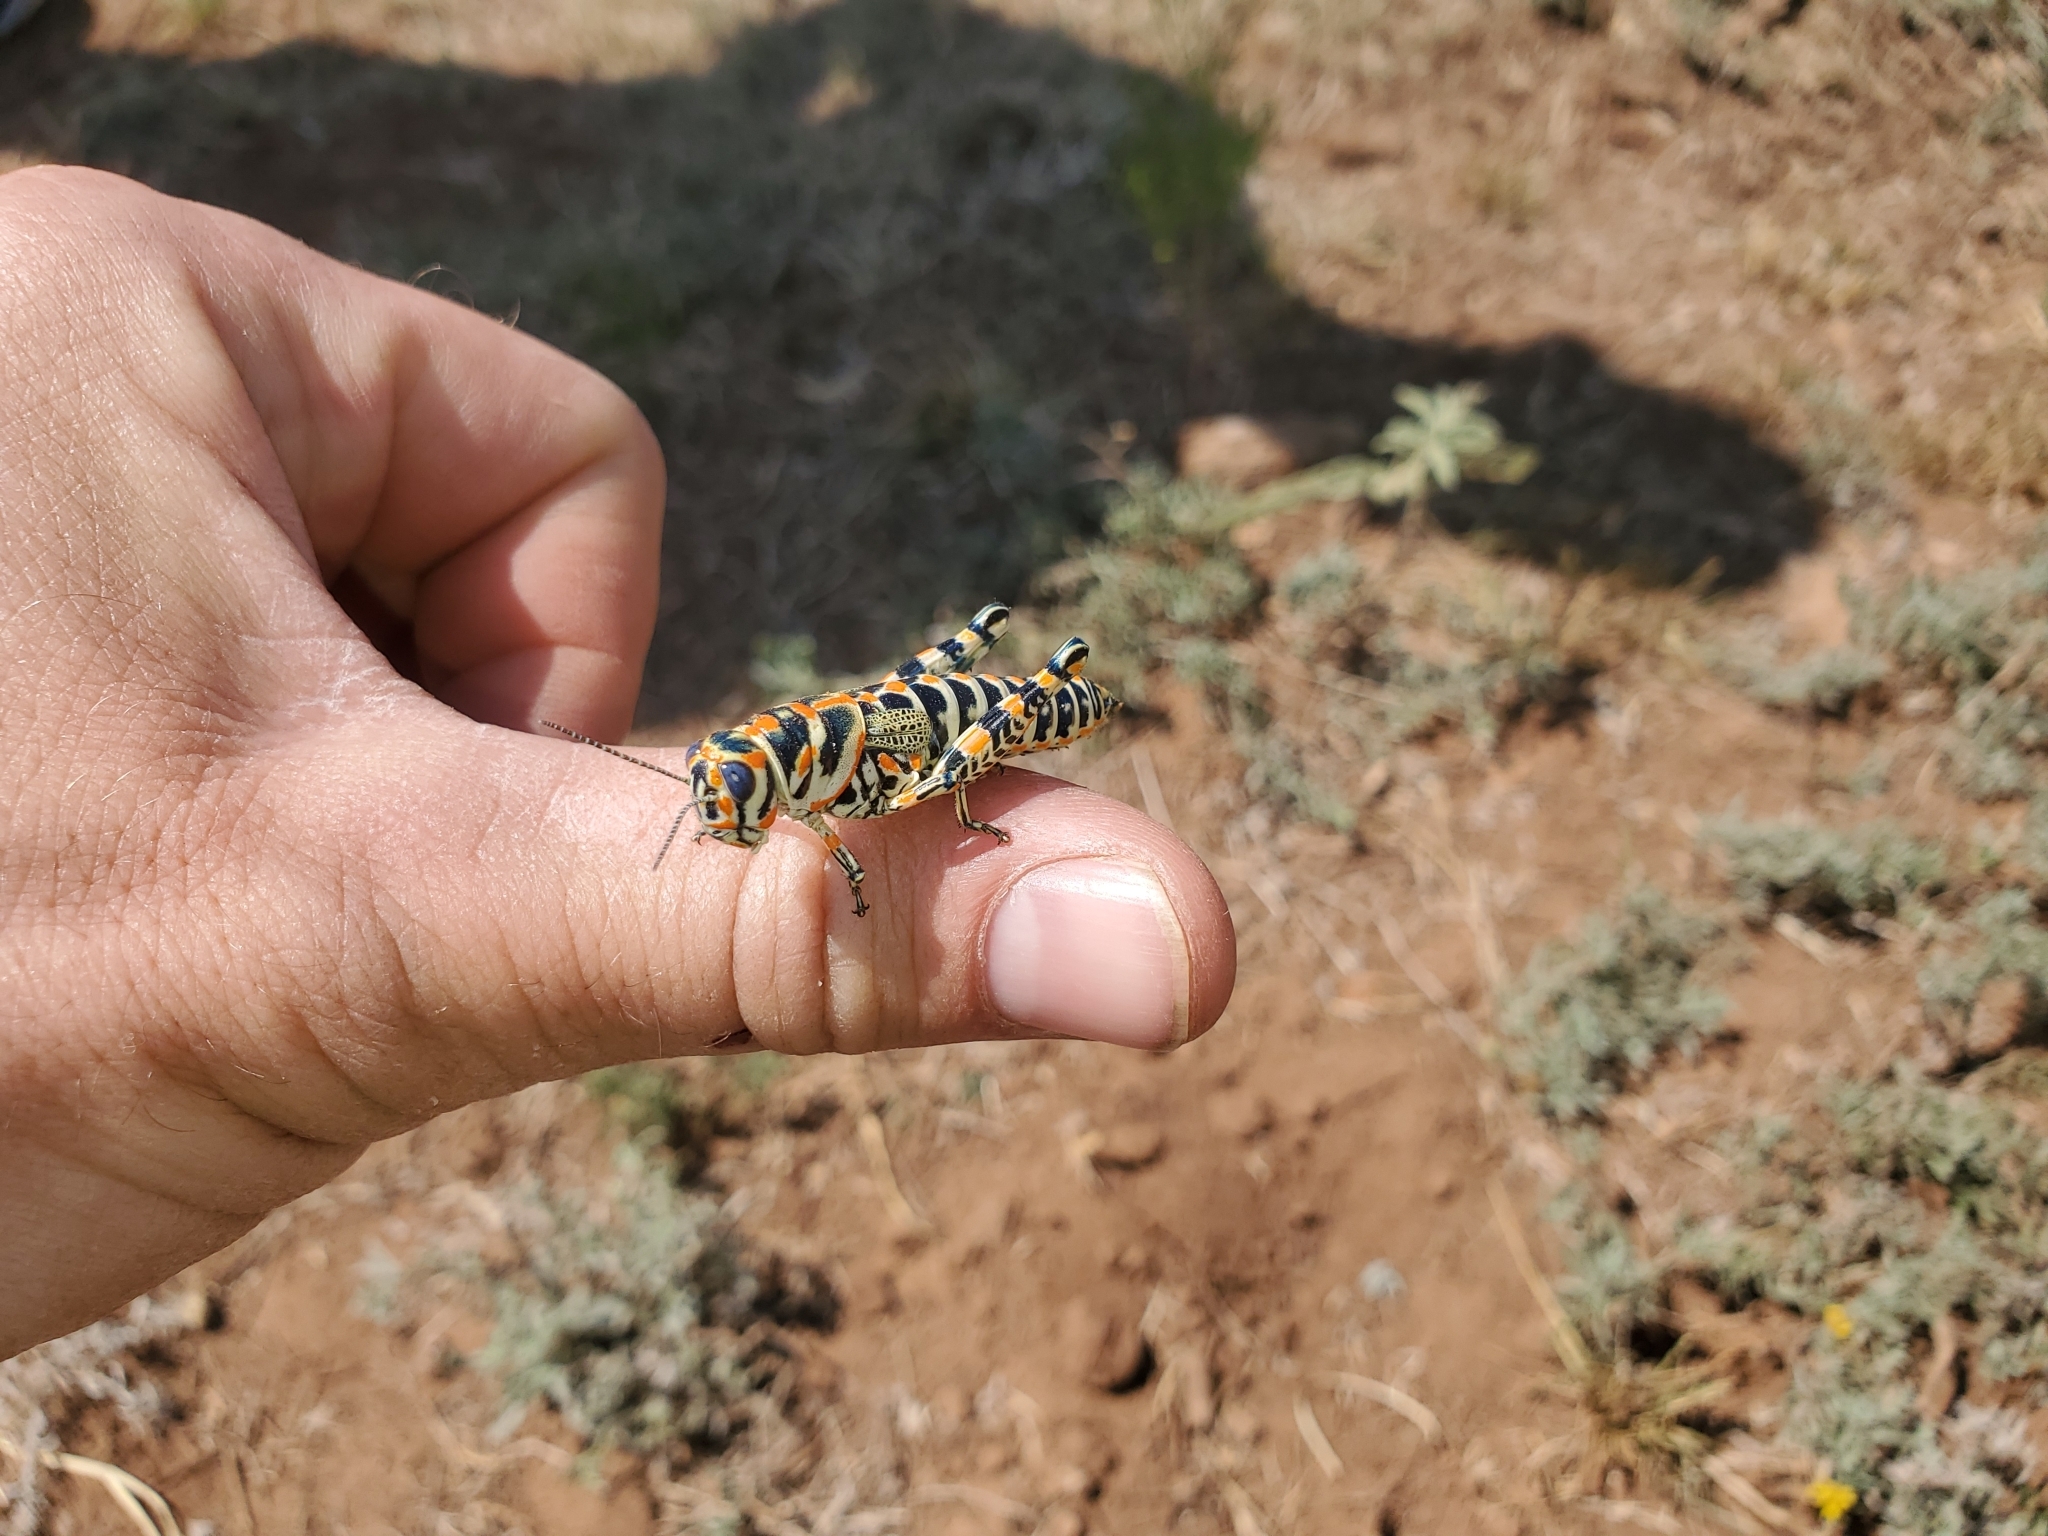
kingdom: Animalia
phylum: Arthropoda
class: Insecta
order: Orthoptera
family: Acrididae
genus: Dactylotum
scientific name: Dactylotum bicolor
